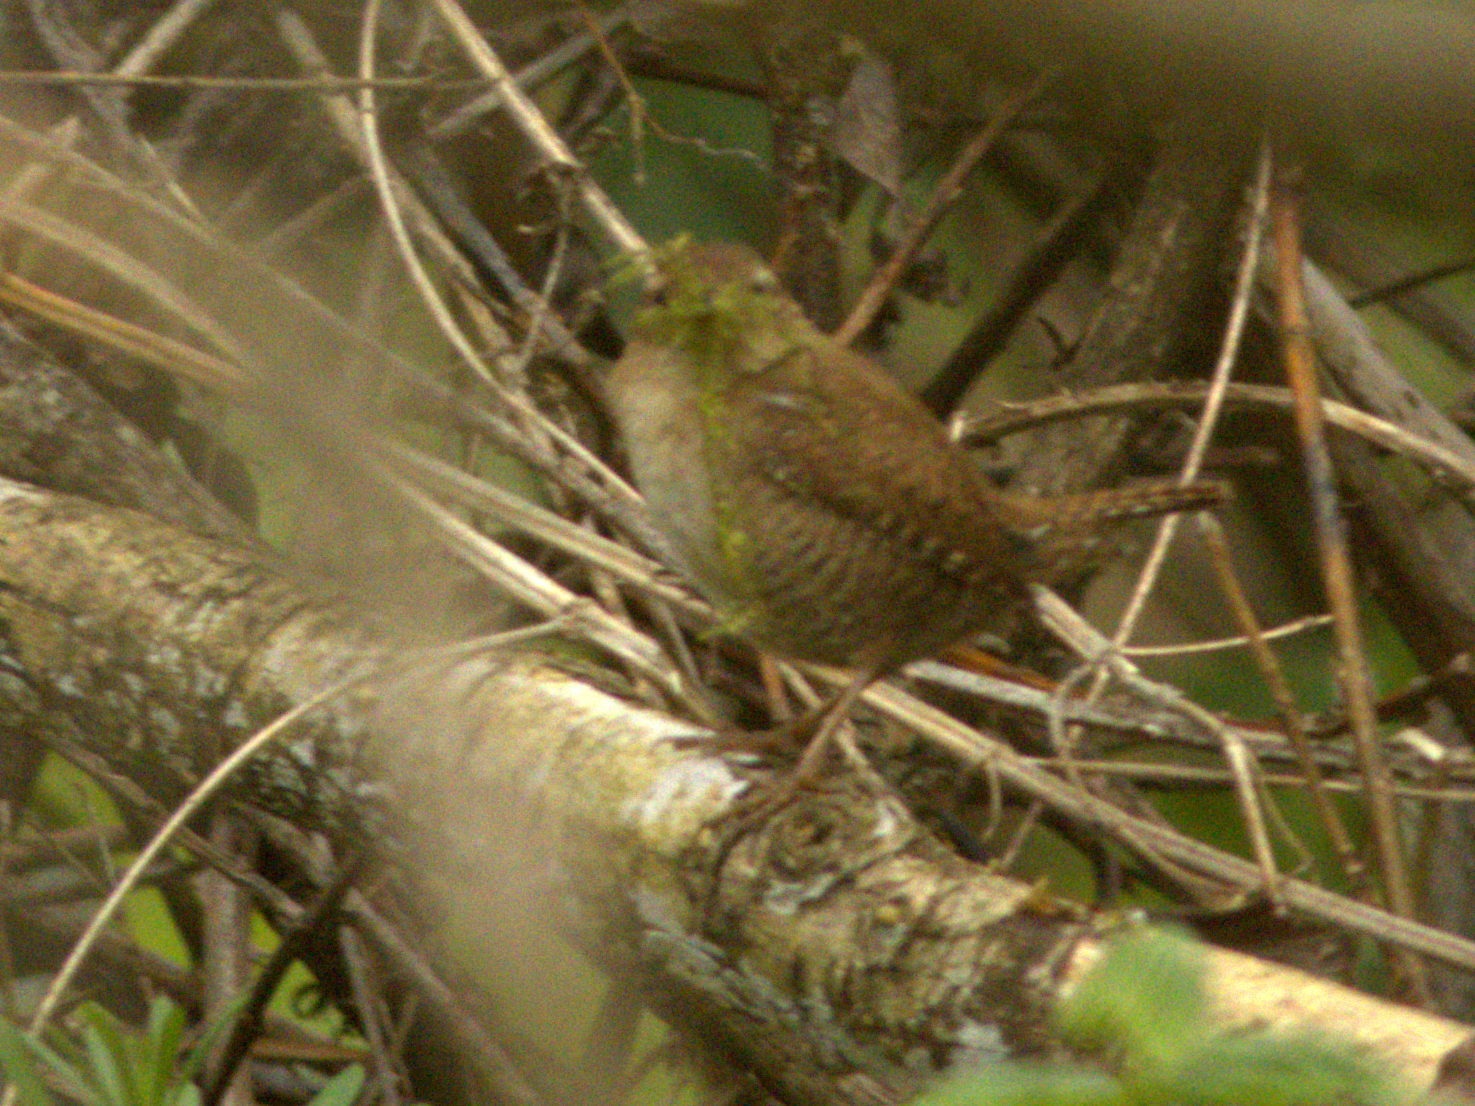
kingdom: Animalia
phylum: Chordata
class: Aves
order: Passeriformes
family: Troglodytidae
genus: Troglodytes
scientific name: Troglodytes troglodytes
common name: Eurasian wren
